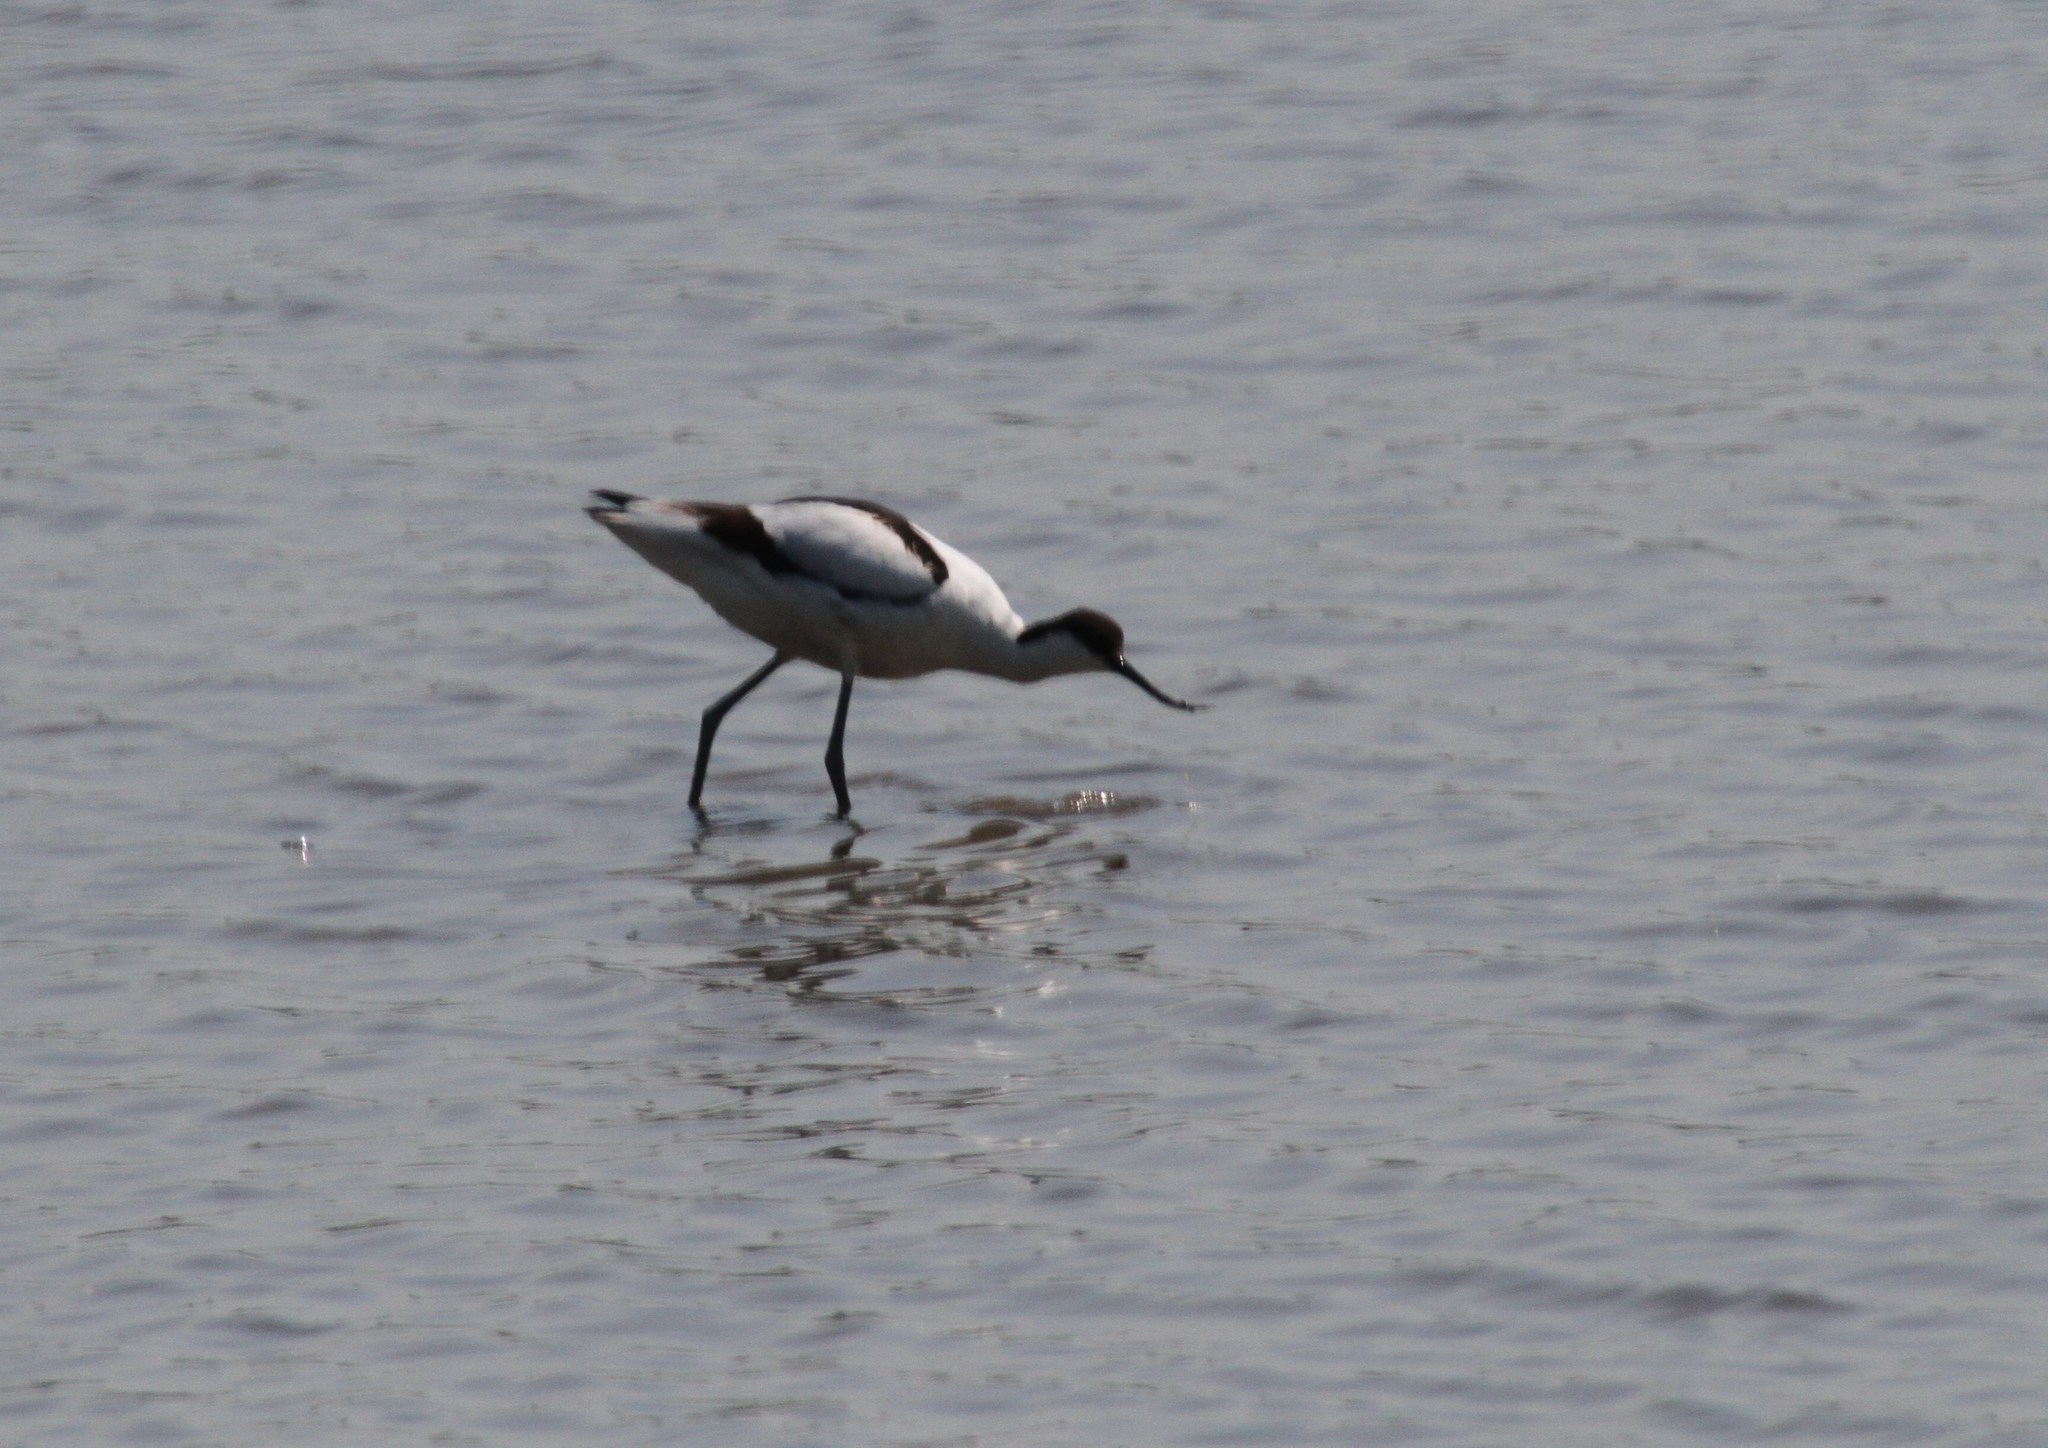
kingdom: Animalia
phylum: Chordata
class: Aves
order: Charadriiformes
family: Recurvirostridae
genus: Recurvirostra
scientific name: Recurvirostra avosetta
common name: Pied avocet
